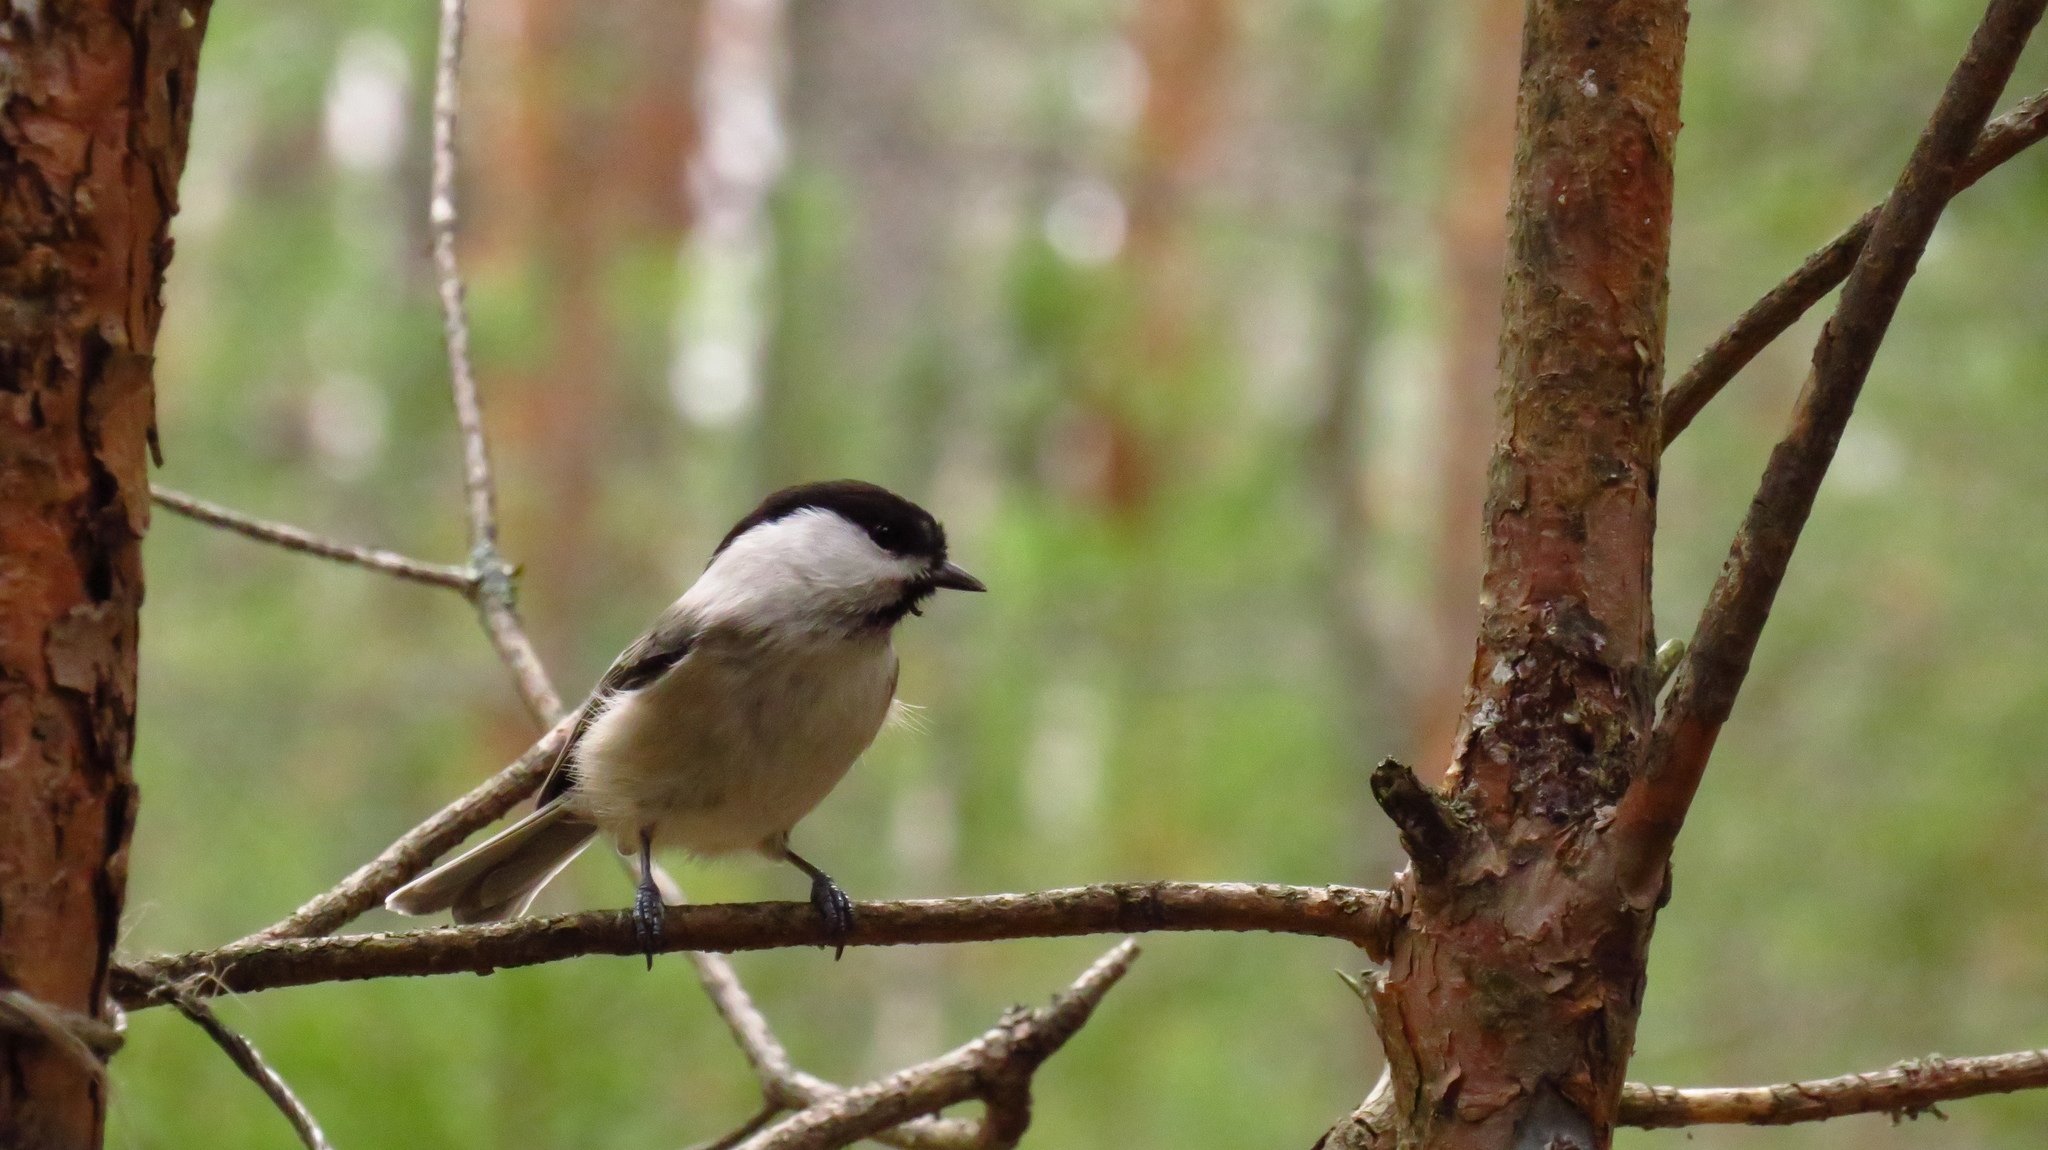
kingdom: Animalia
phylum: Chordata
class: Aves
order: Passeriformes
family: Paridae
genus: Poecile
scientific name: Poecile montanus
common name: Willow tit
